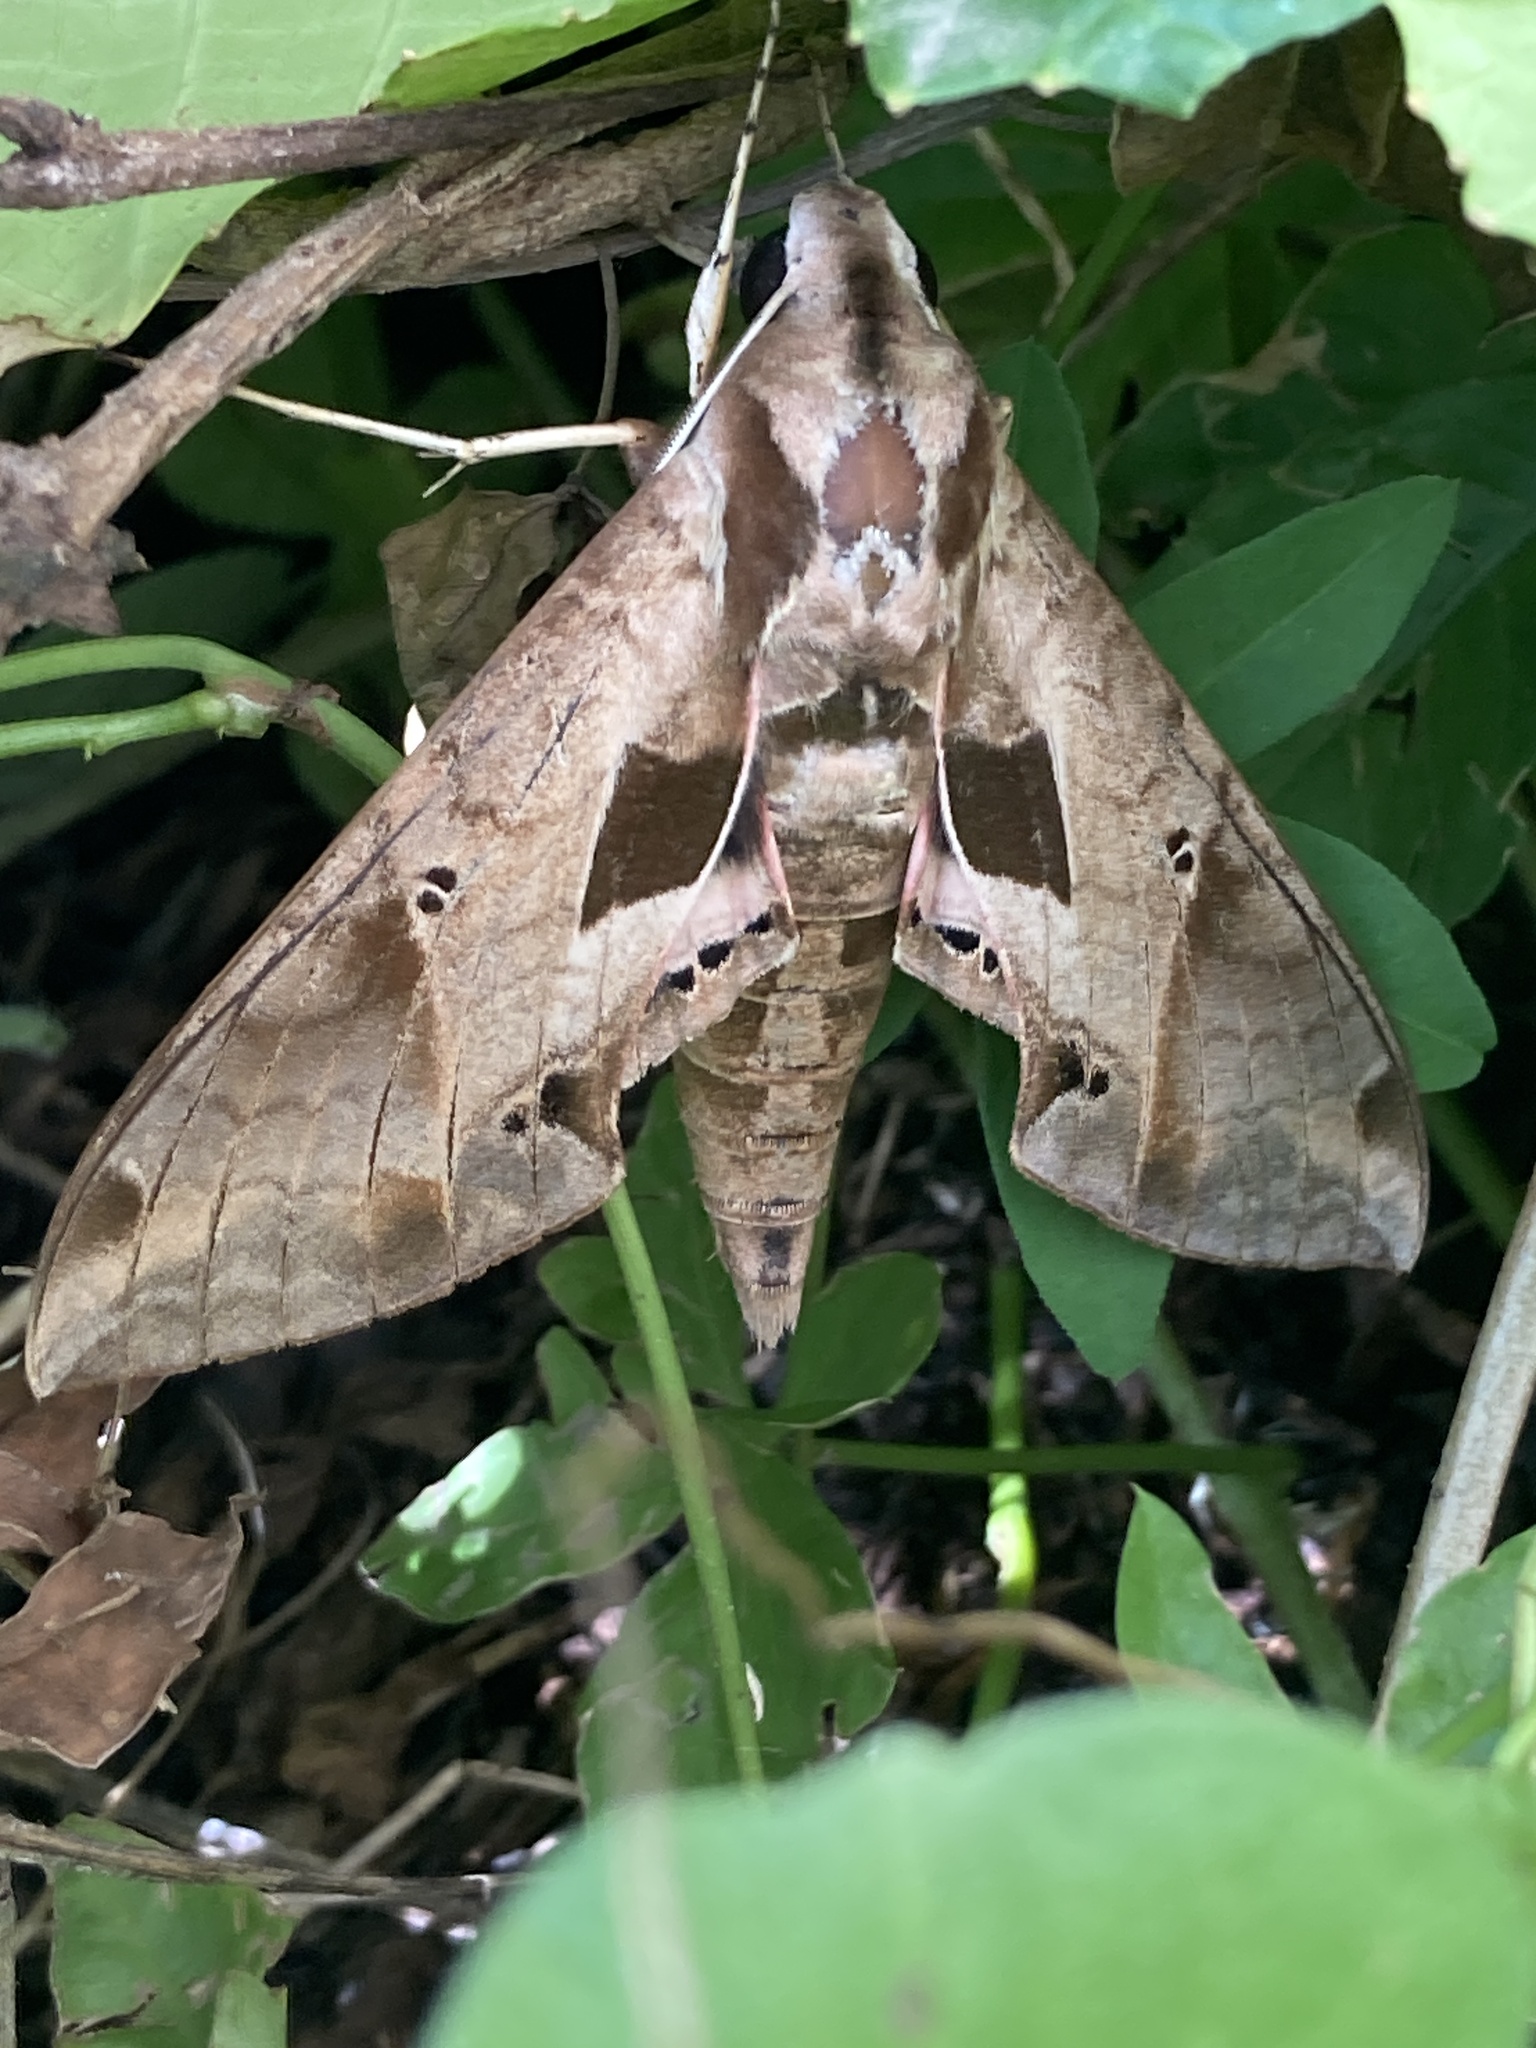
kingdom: Animalia
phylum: Arthropoda
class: Insecta
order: Lepidoptera
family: Sphingidae
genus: Eumorpha
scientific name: Eumorpha analis
